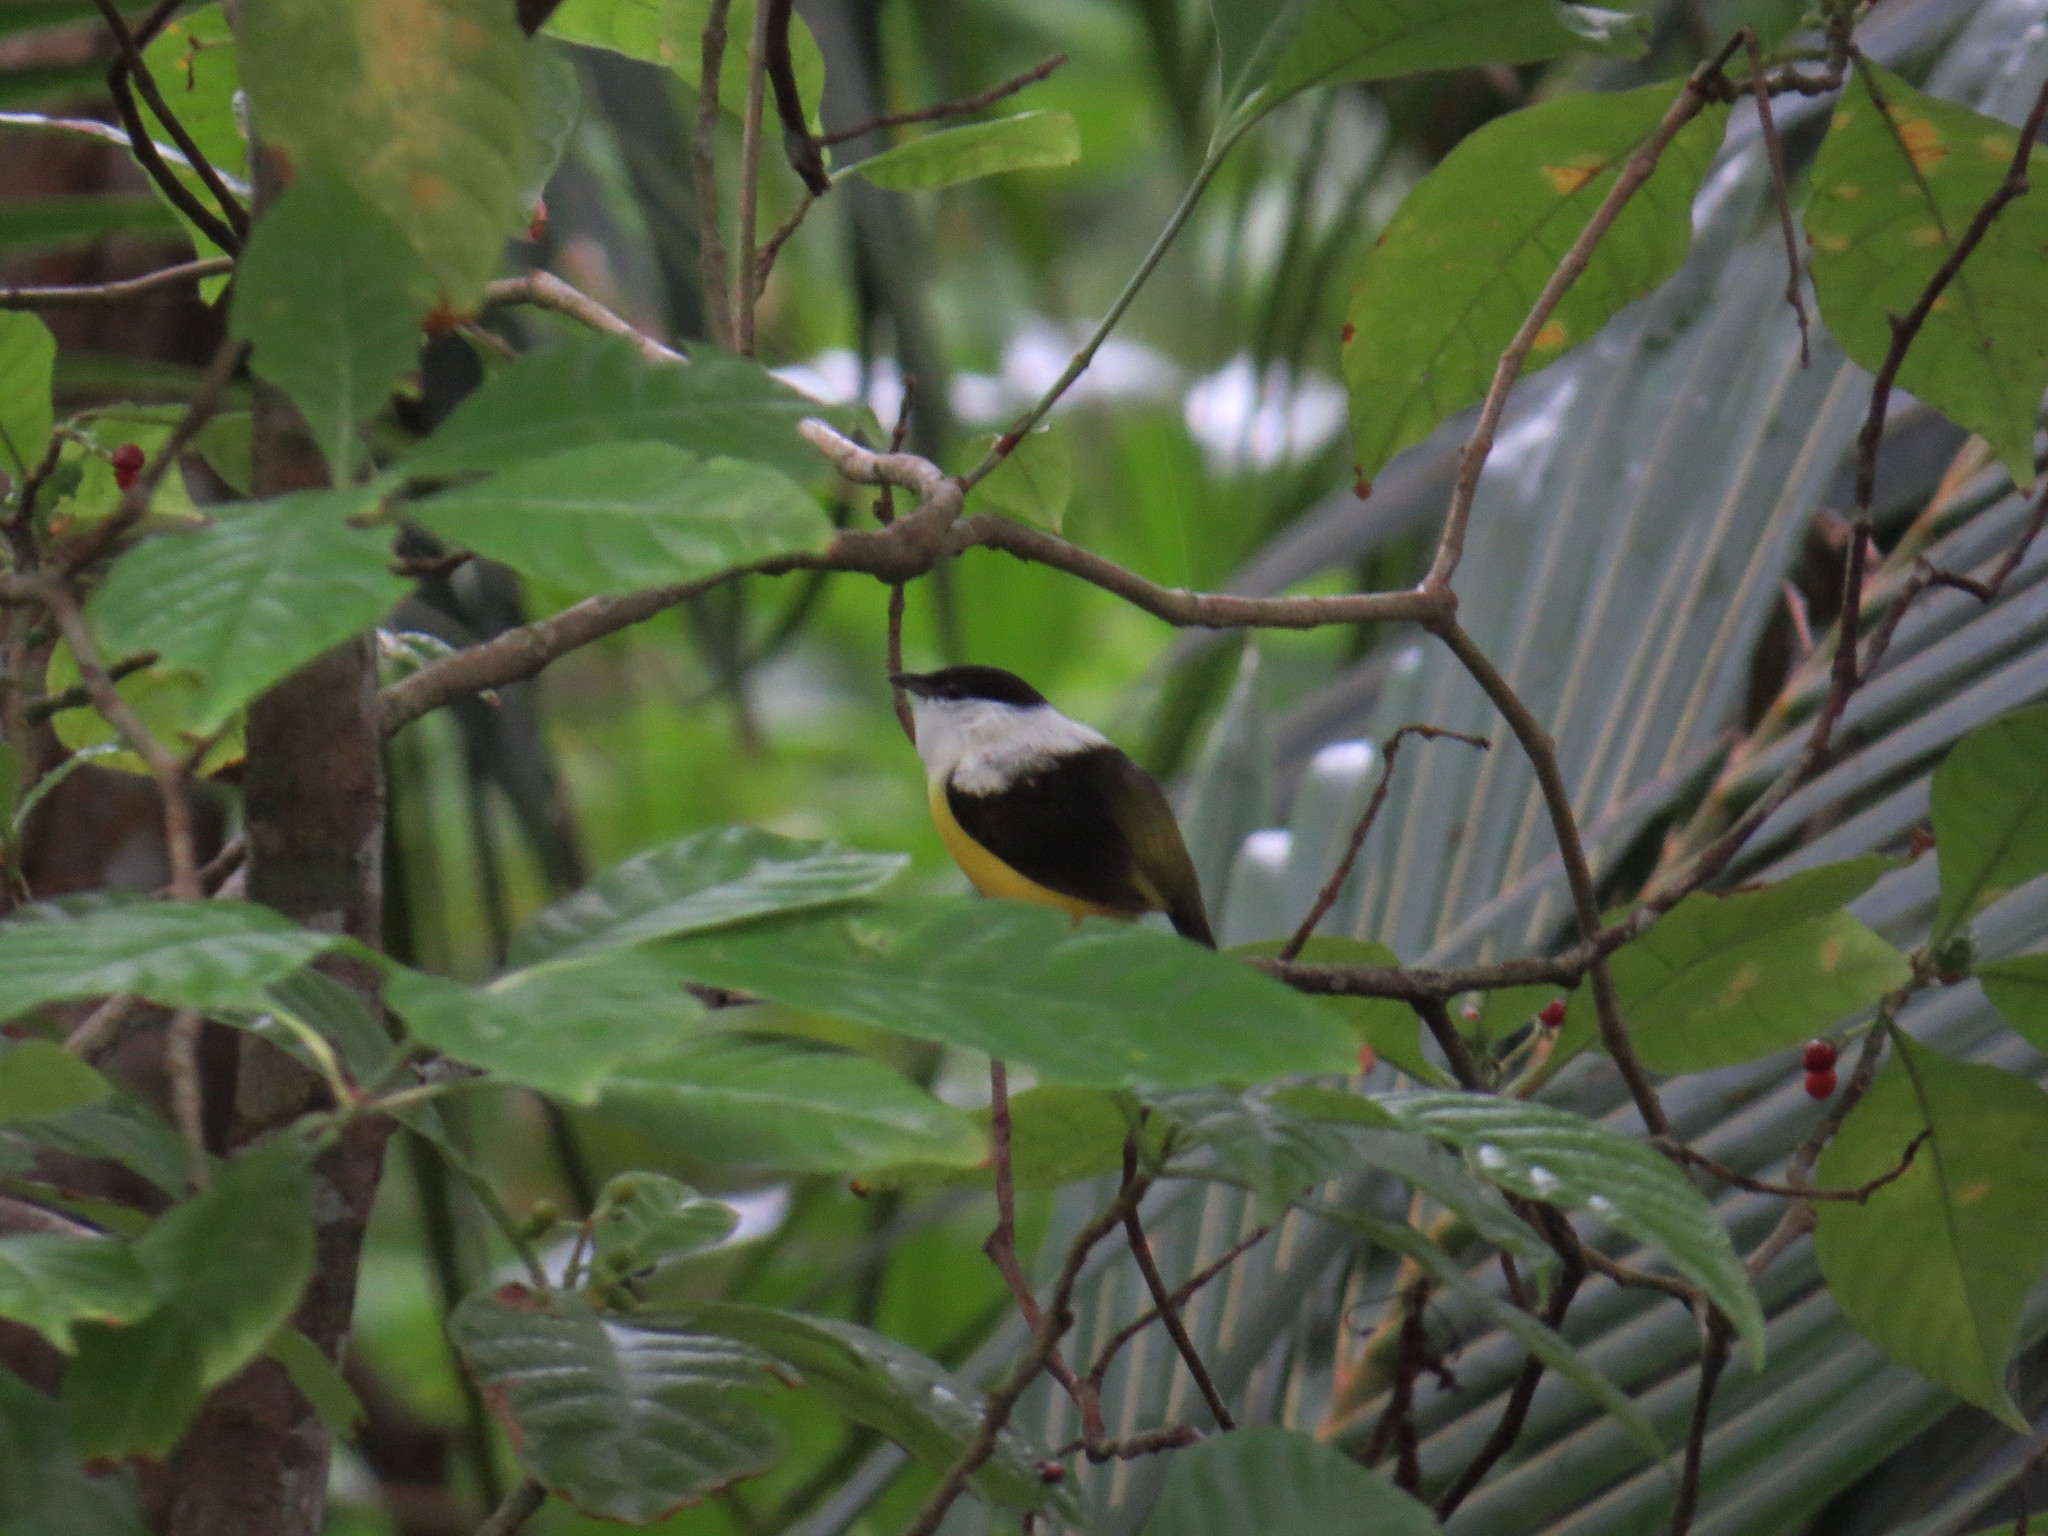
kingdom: Animalia
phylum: Chordata
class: Aves
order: Passeriformes
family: Pipridae
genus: Manacus
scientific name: Manacus candei
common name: White-collared manakin
